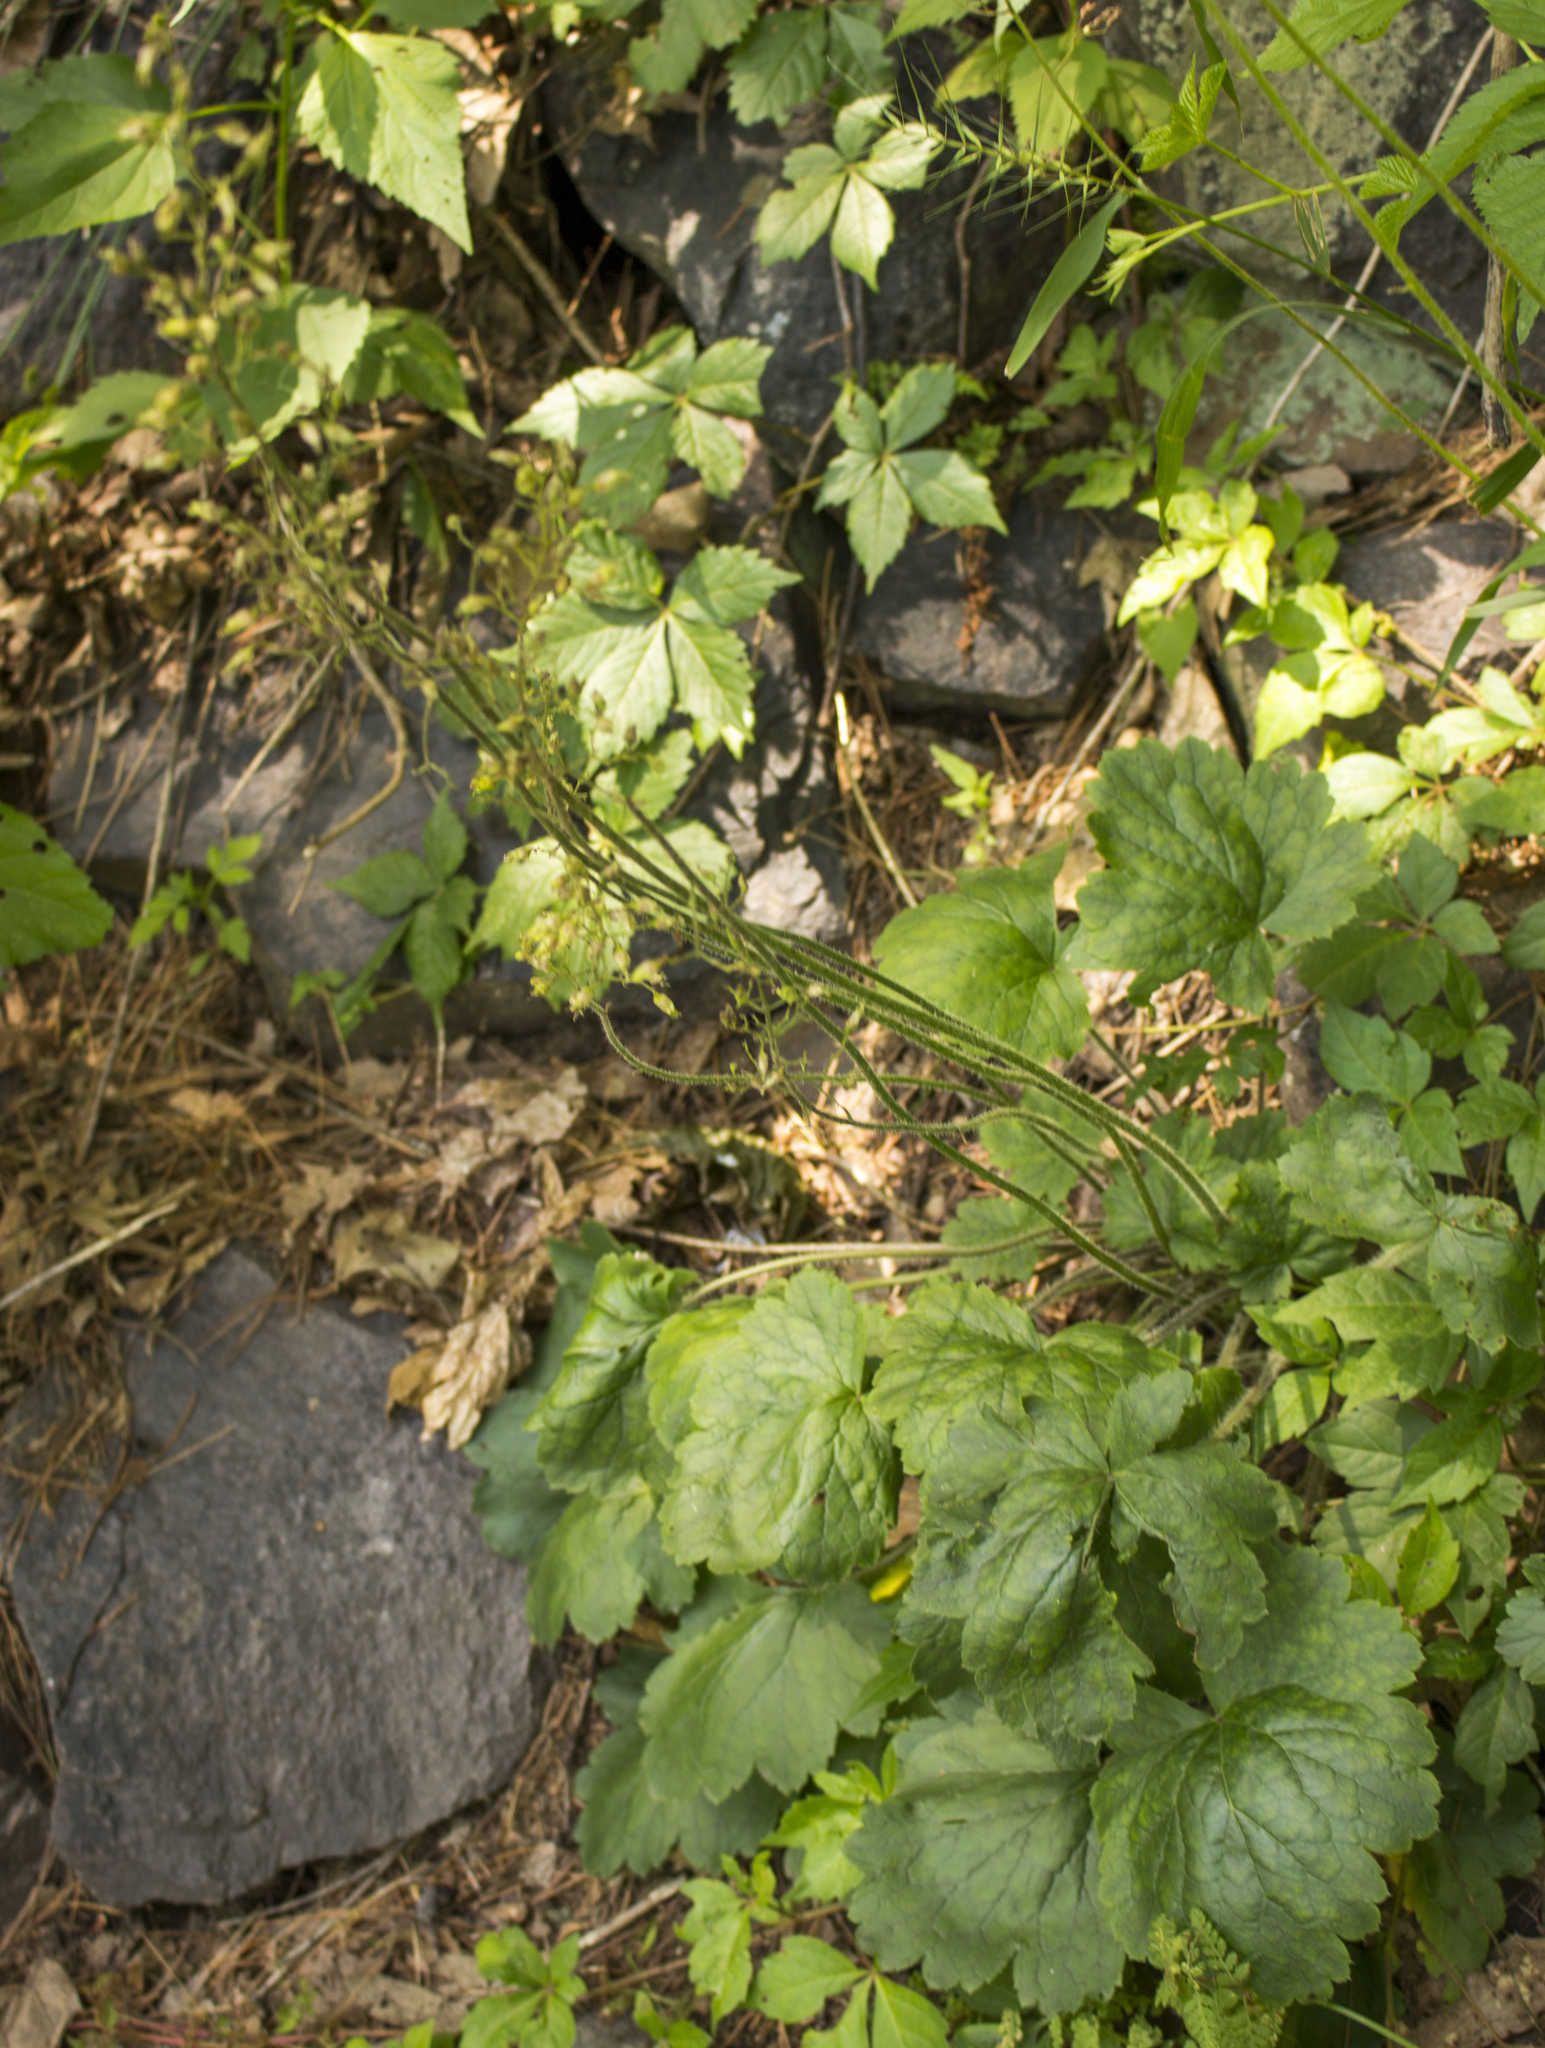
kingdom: Plantae
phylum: Tracheophyta
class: Magnoliopsida
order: Saxifragales
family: Saxifragaceae
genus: Heuchera
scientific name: Heuchera richardsonii
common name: Richardson's alumroot
